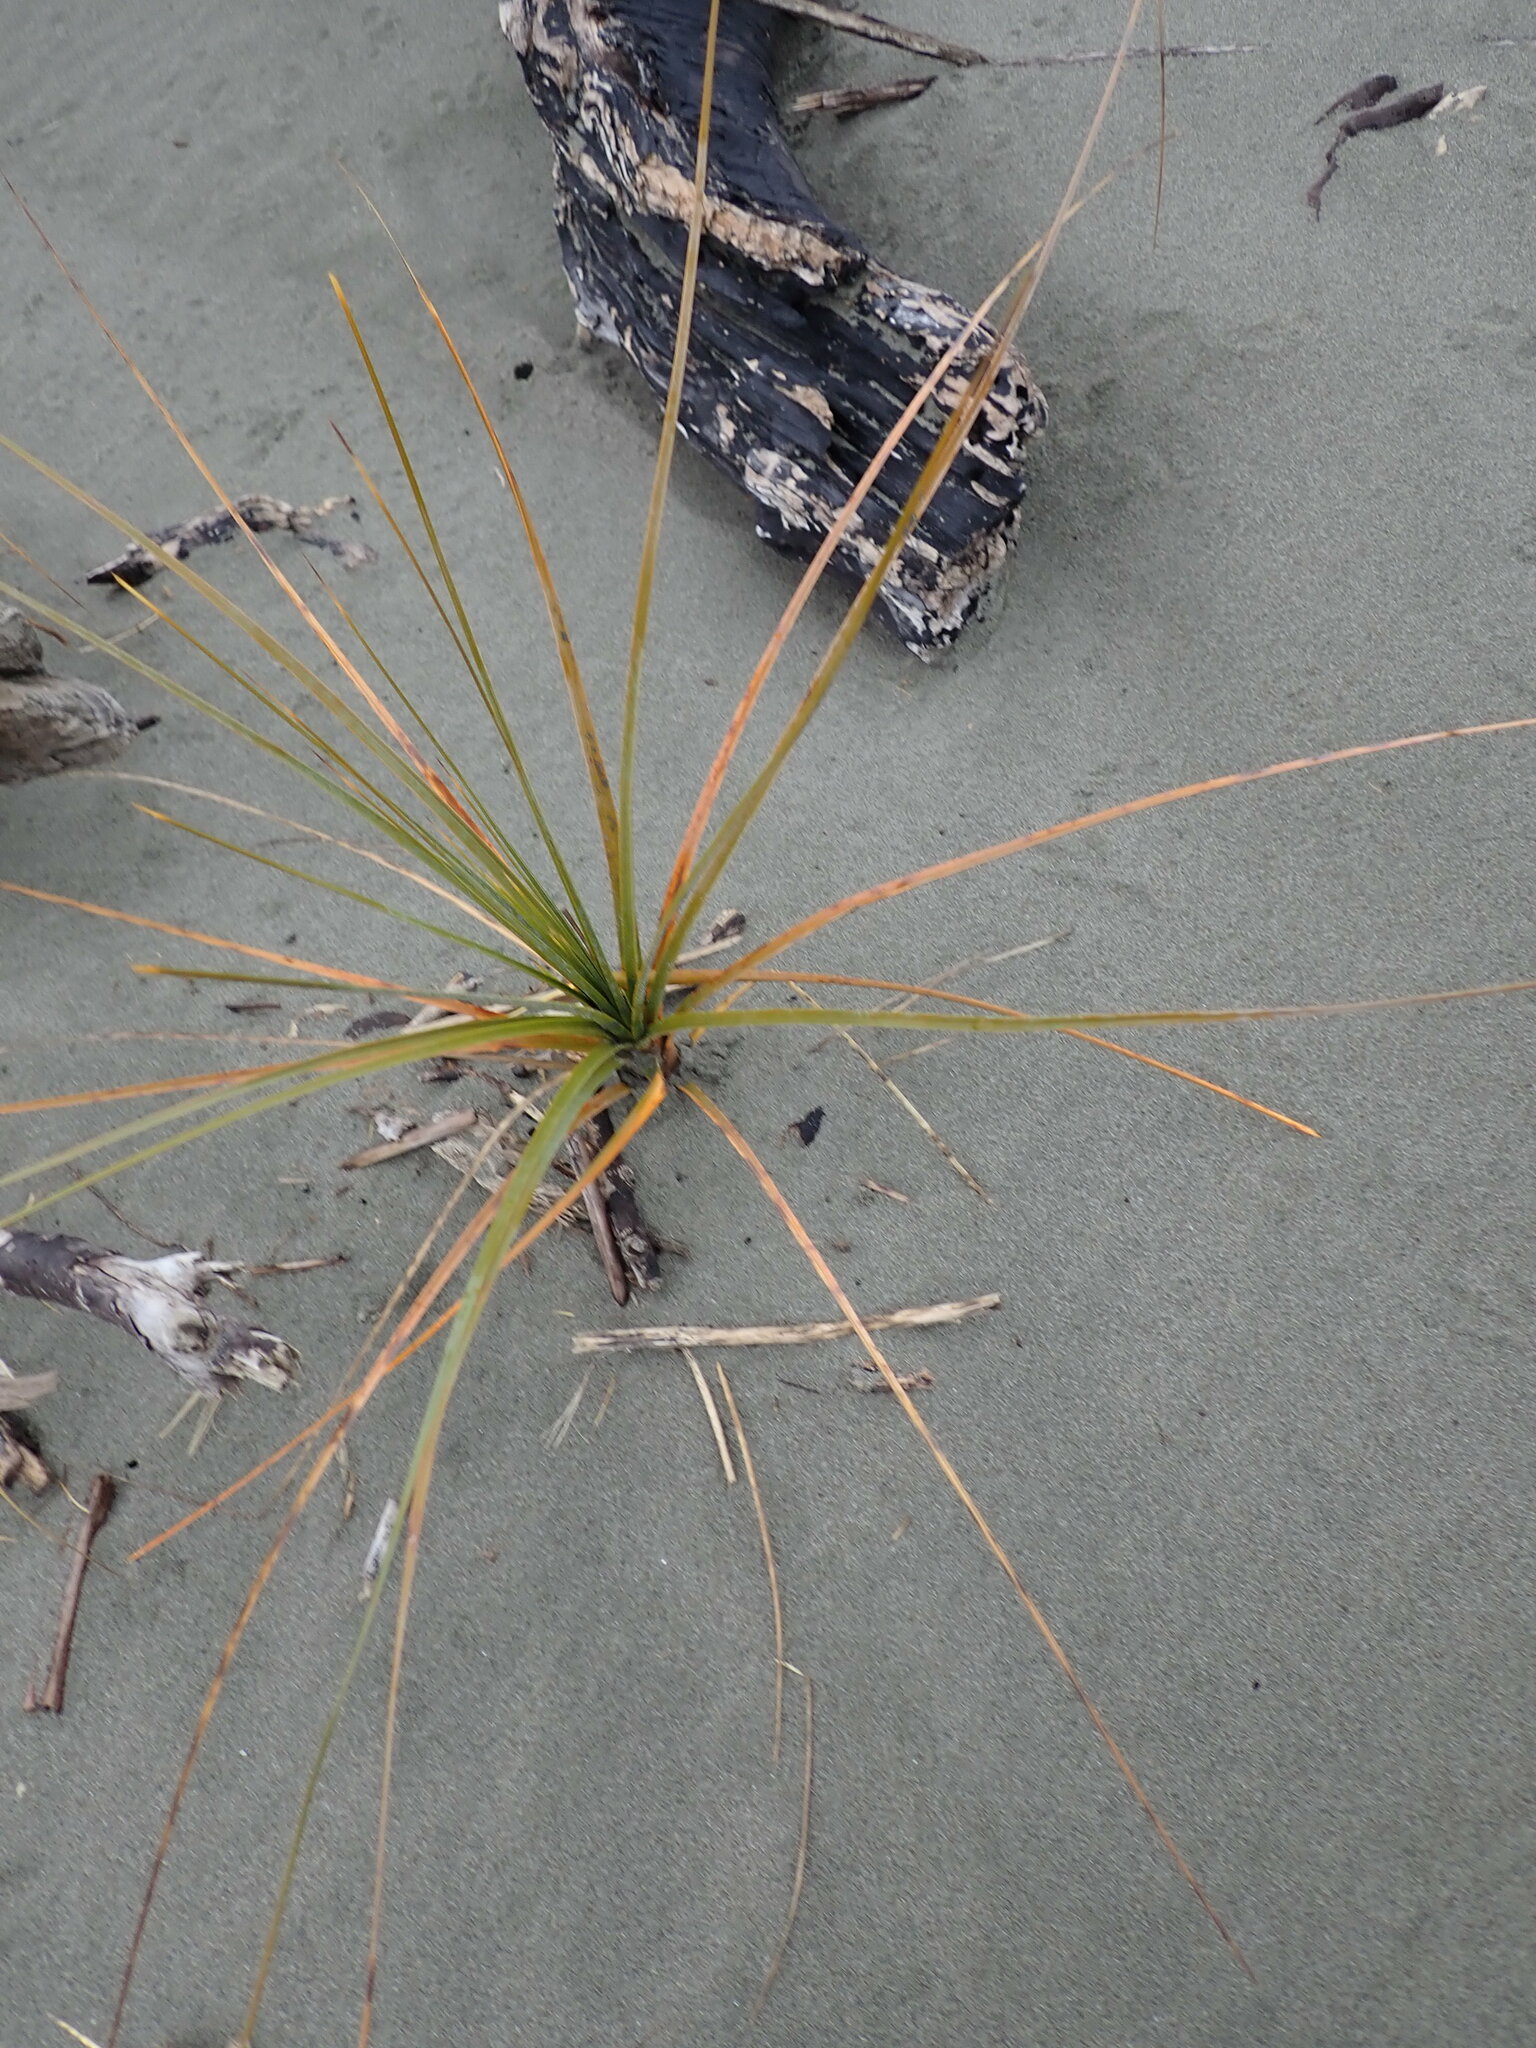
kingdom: Plantae
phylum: Tracheophyta
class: Liliopsida
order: Poales
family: Cyperaceae
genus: Ficinia
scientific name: Ficinia spiralis
